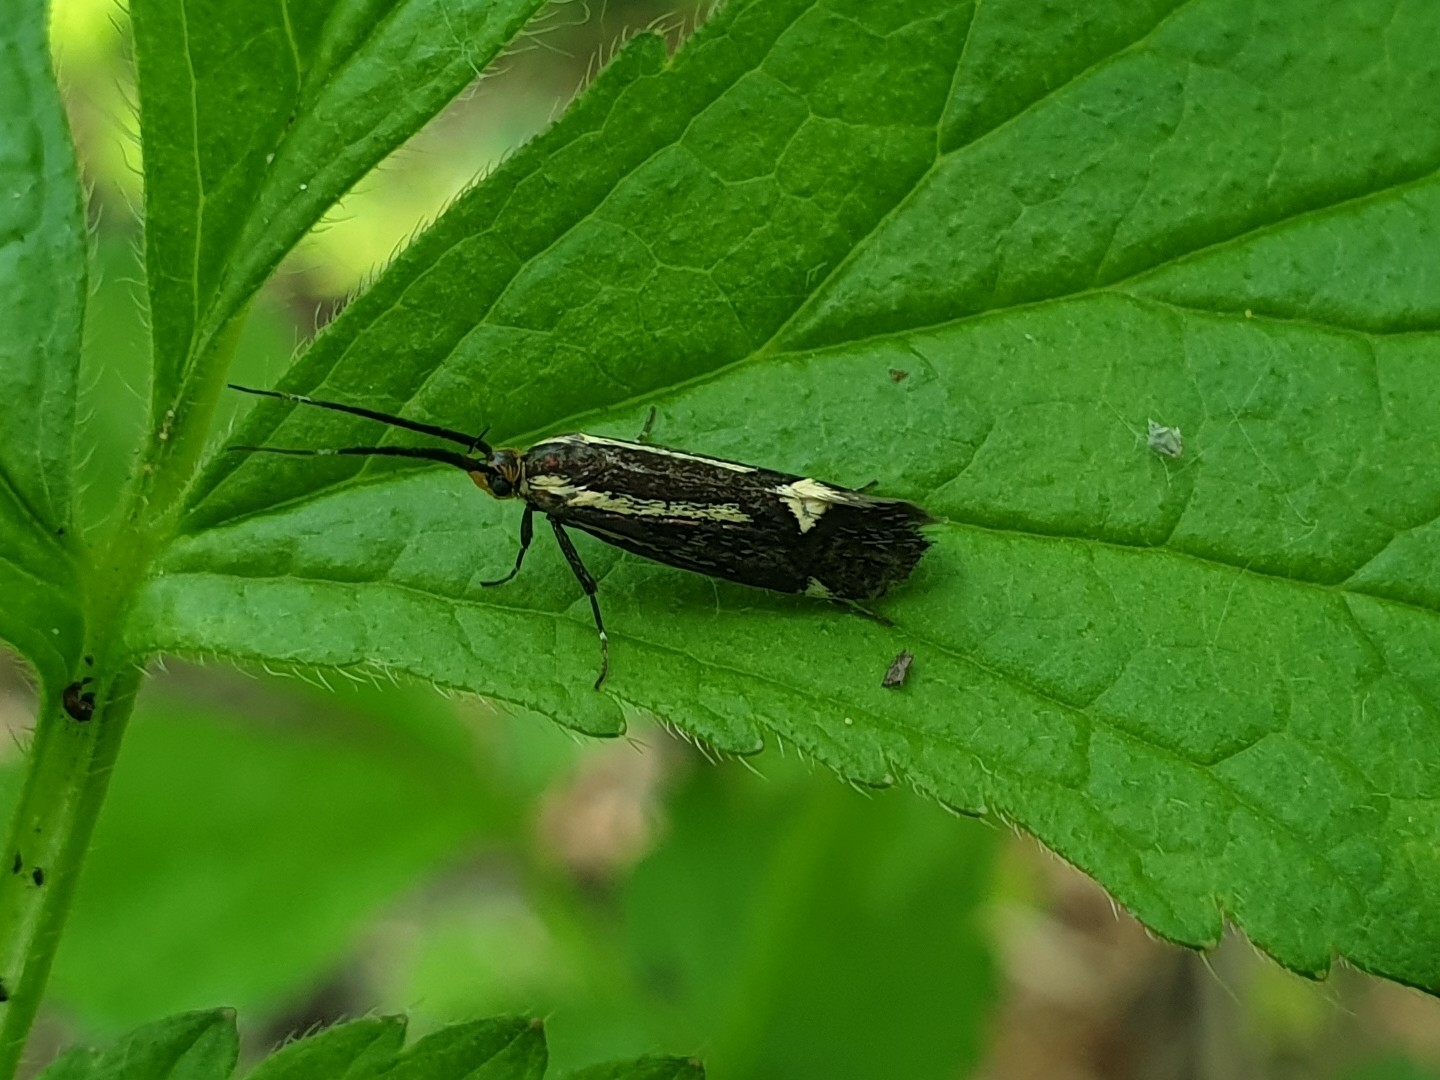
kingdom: Animalia
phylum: Arthropoda
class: Insecta
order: Lepidoptera
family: Oecophoridae
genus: Dafa
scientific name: Dafa Esperia sulphurella
